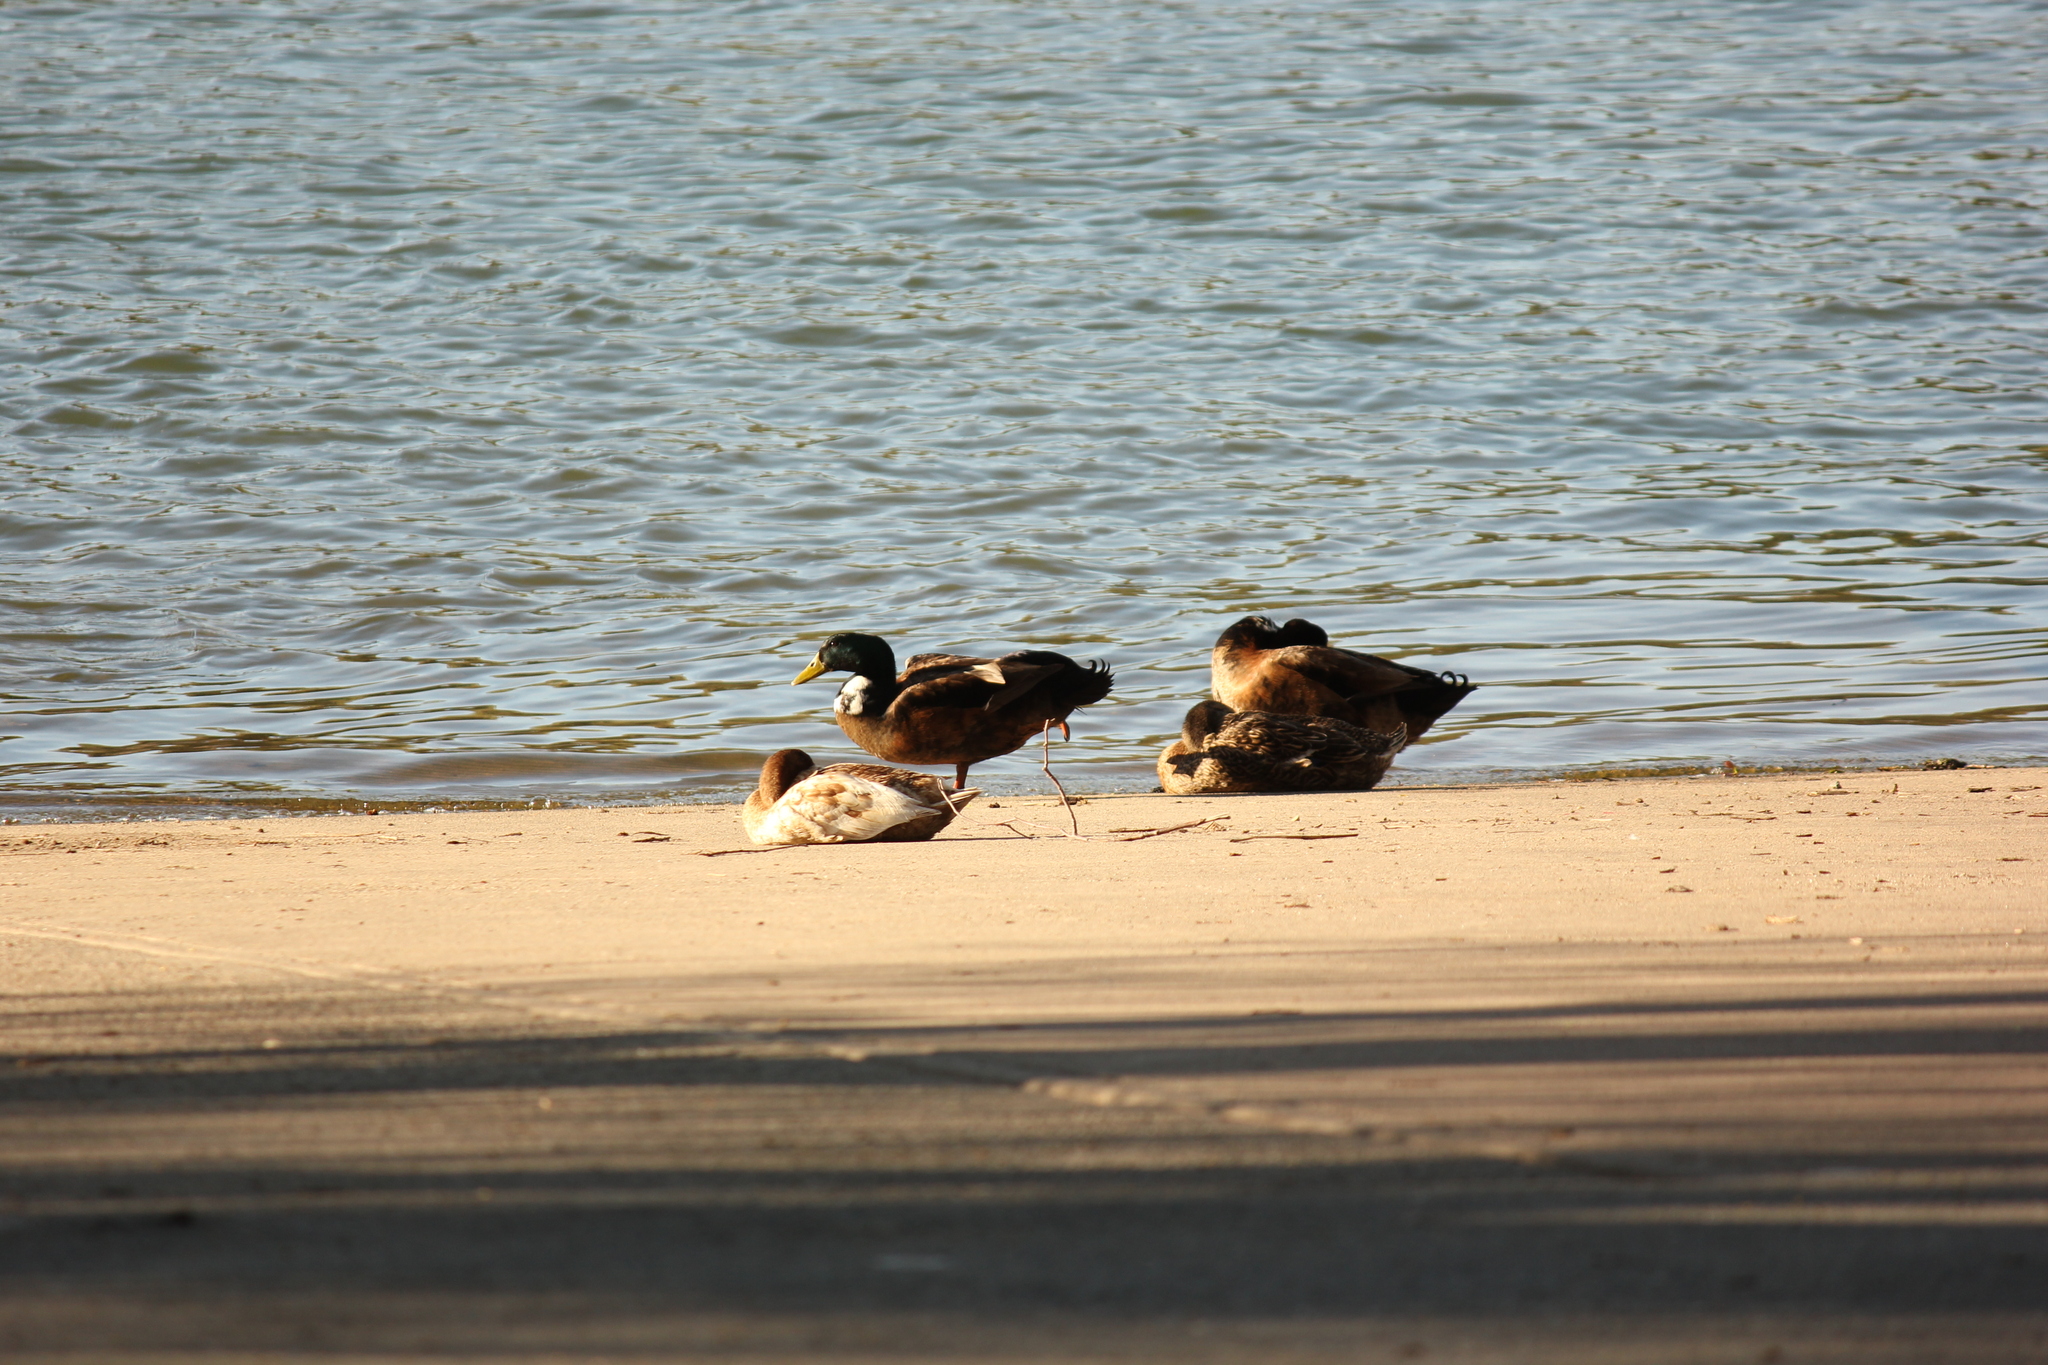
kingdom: Animalia
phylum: Chordata
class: Aves
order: Anseriformes
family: Anatidae
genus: Anas
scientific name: Anas platyrhynchos
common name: Mallard
